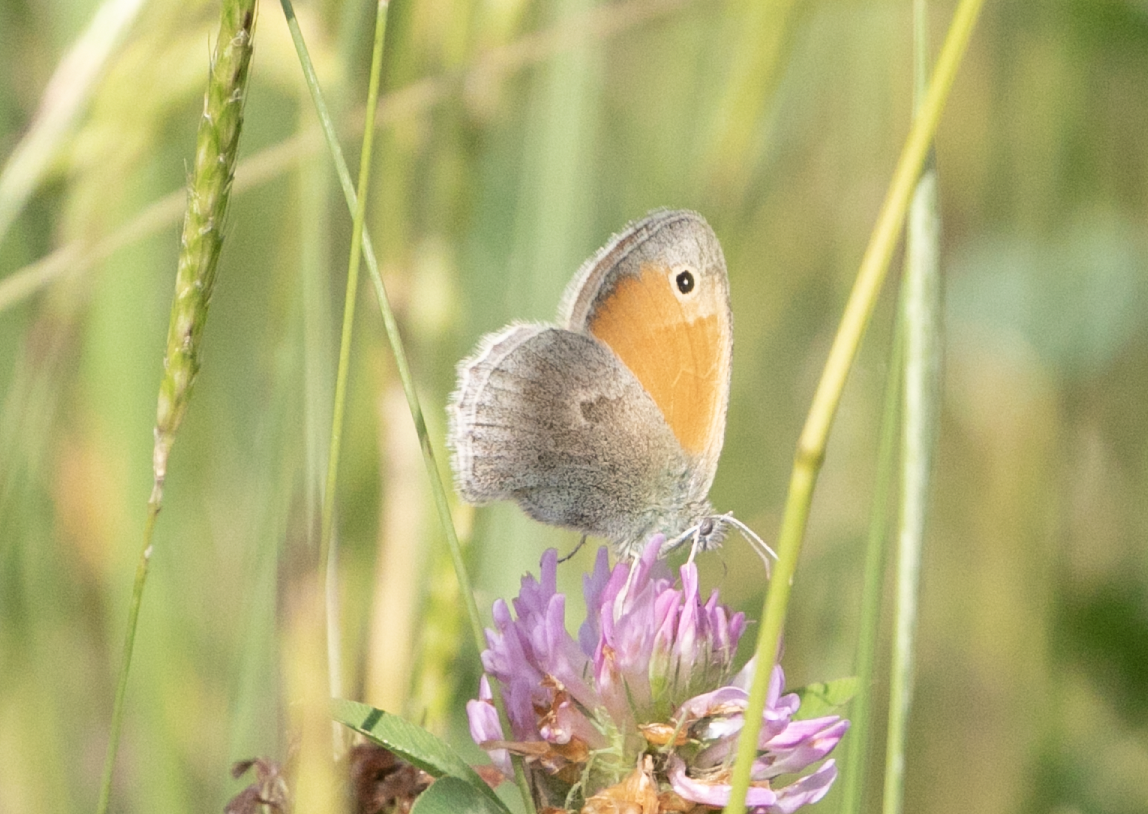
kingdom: Animalia
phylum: Arthropoda
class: Insecta
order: Lepidoptera
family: Nymphalidae
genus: Coenonympha
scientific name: Coenonympha pamphilus
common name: Small heath
